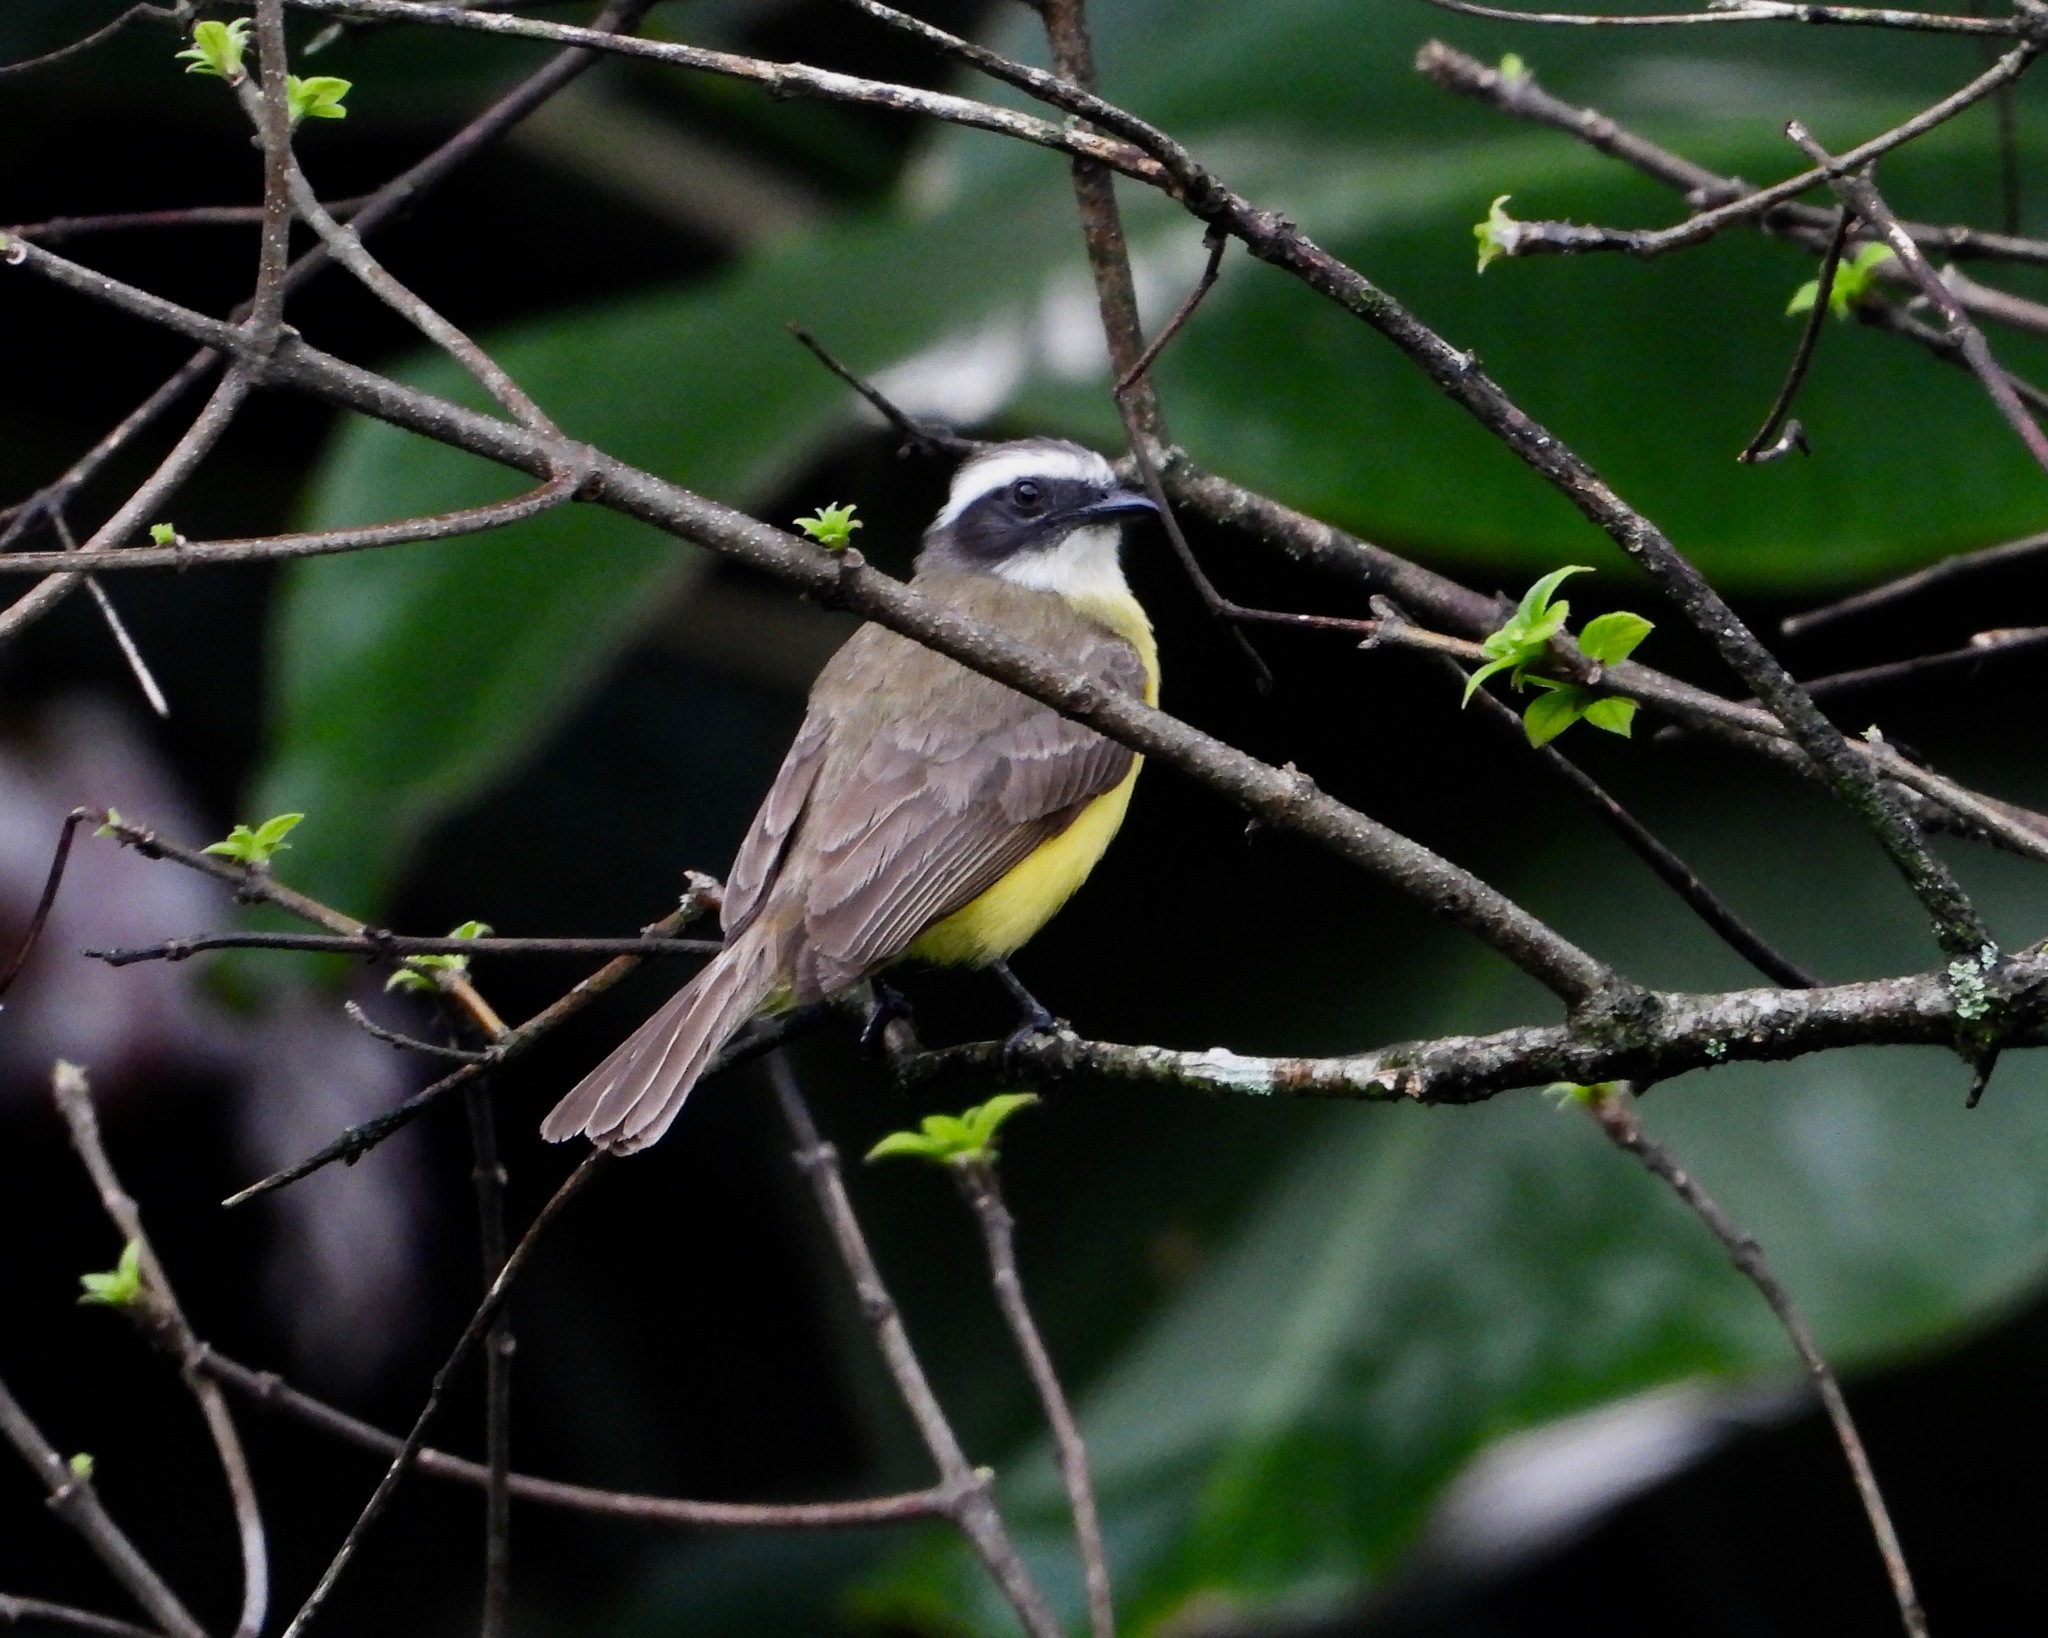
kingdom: Animalia
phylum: Chordata
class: Aves
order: Passeriformes
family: Tyrannidae
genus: Myiozetetes
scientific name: Myiozetetes similis
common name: Social flycatcher
